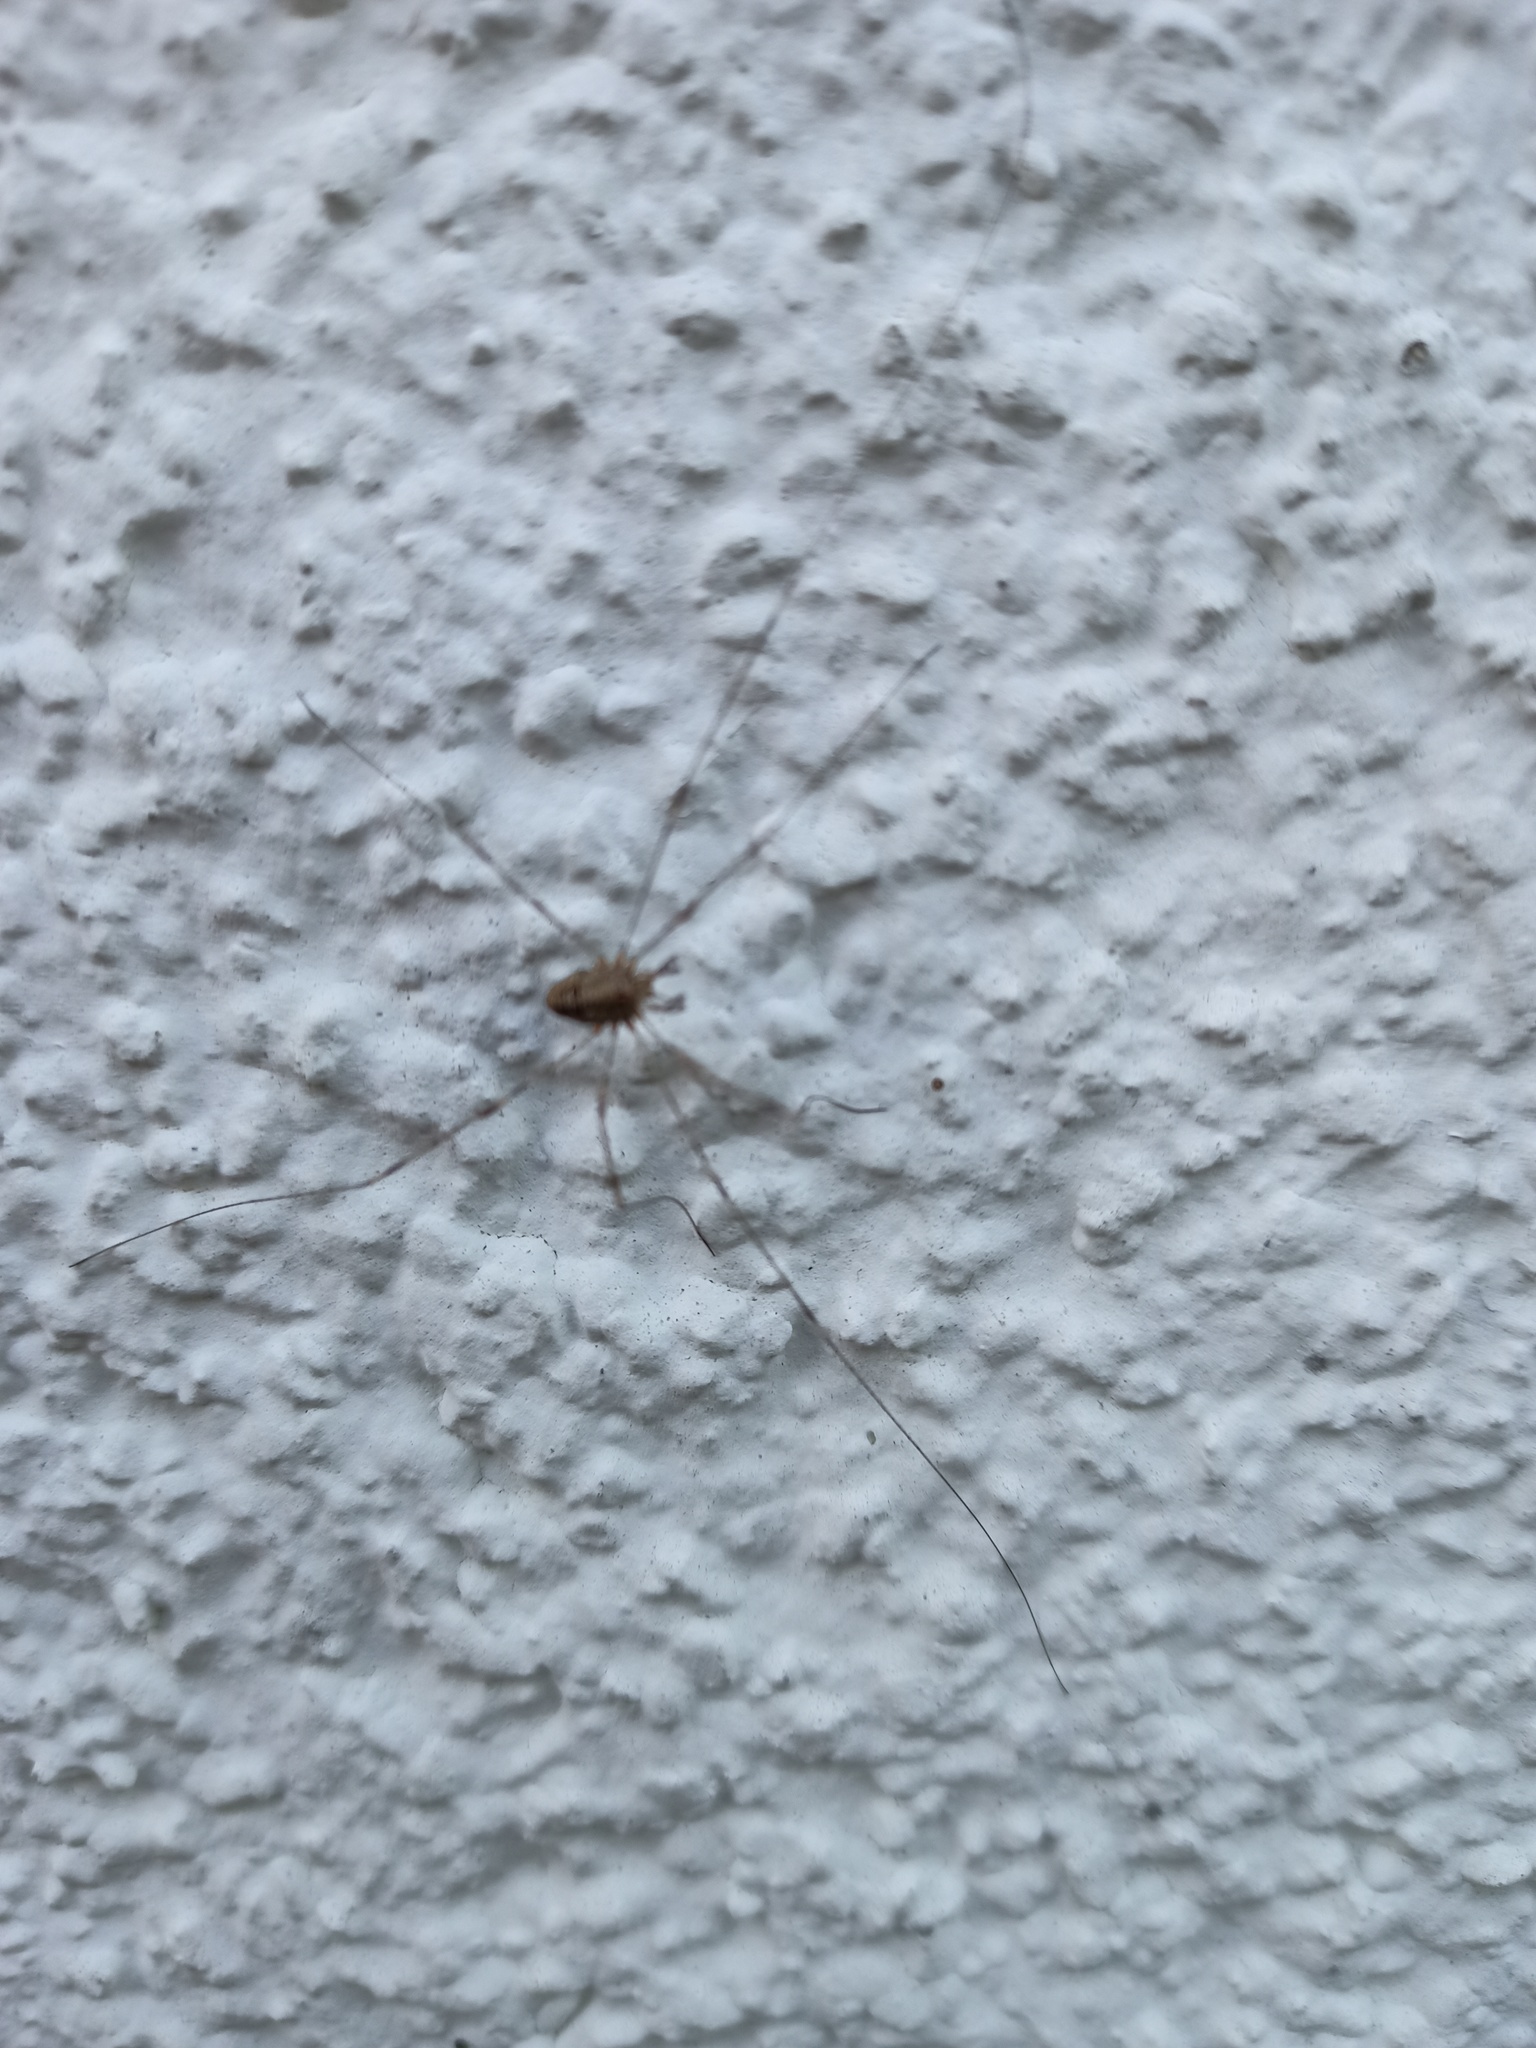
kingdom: Animalia
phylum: Arthropoda
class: Arachnida
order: Opiliones
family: Phalangiidae
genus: Dicranopalpus
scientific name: Dicranopalpus ramosus
